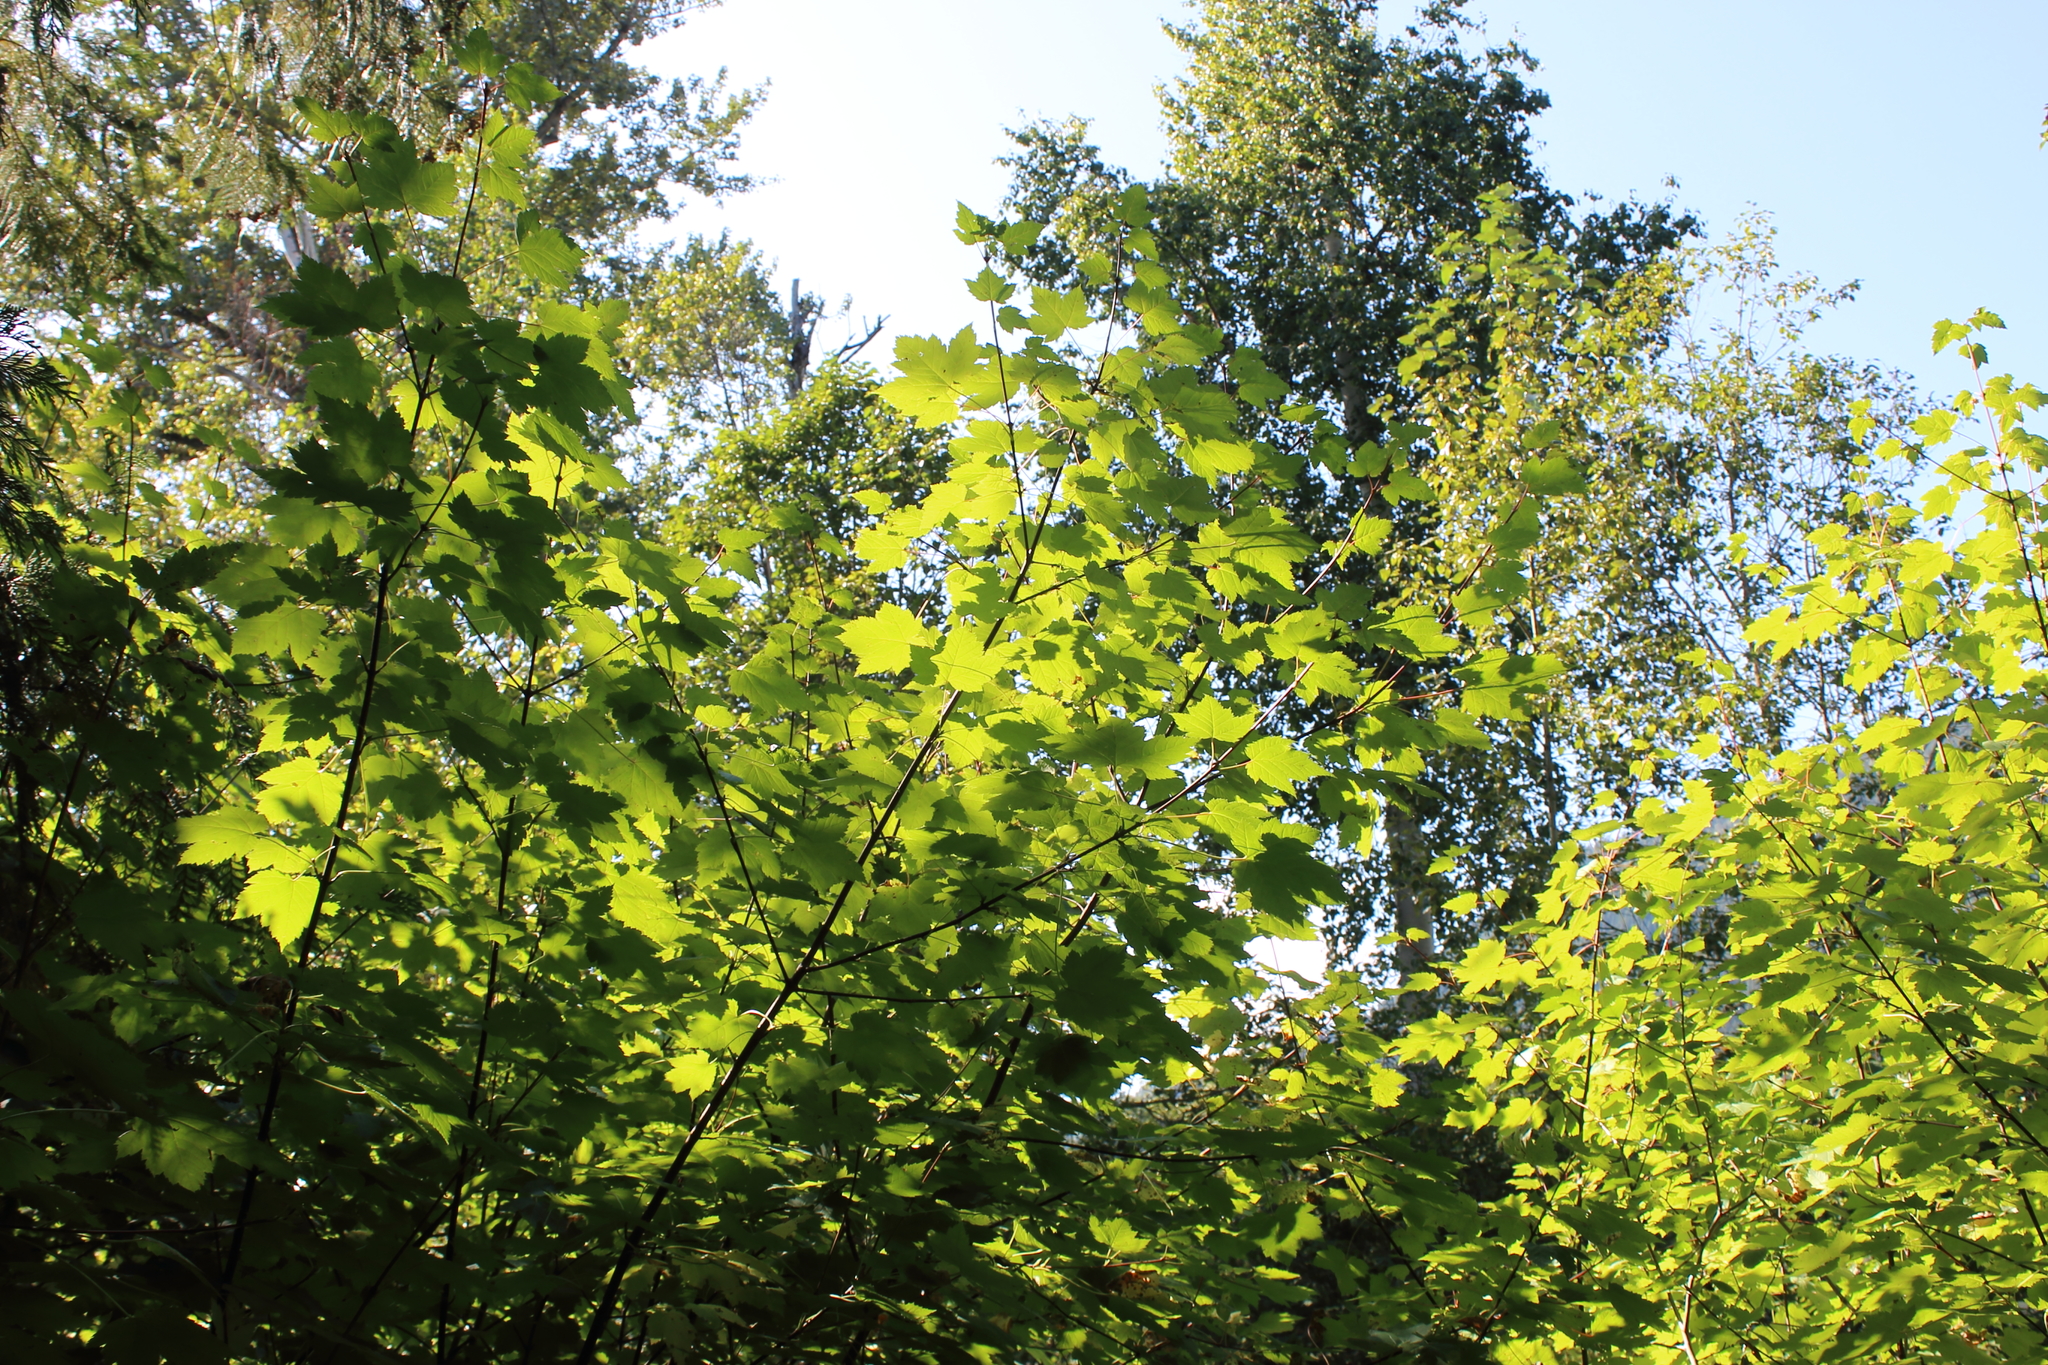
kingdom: Plantae
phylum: Tracheophyta
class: Magnoliopsida
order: Sapindales
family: Sapindaceae
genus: Acer
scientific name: Acer glabrum
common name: Rocky mountain maple
